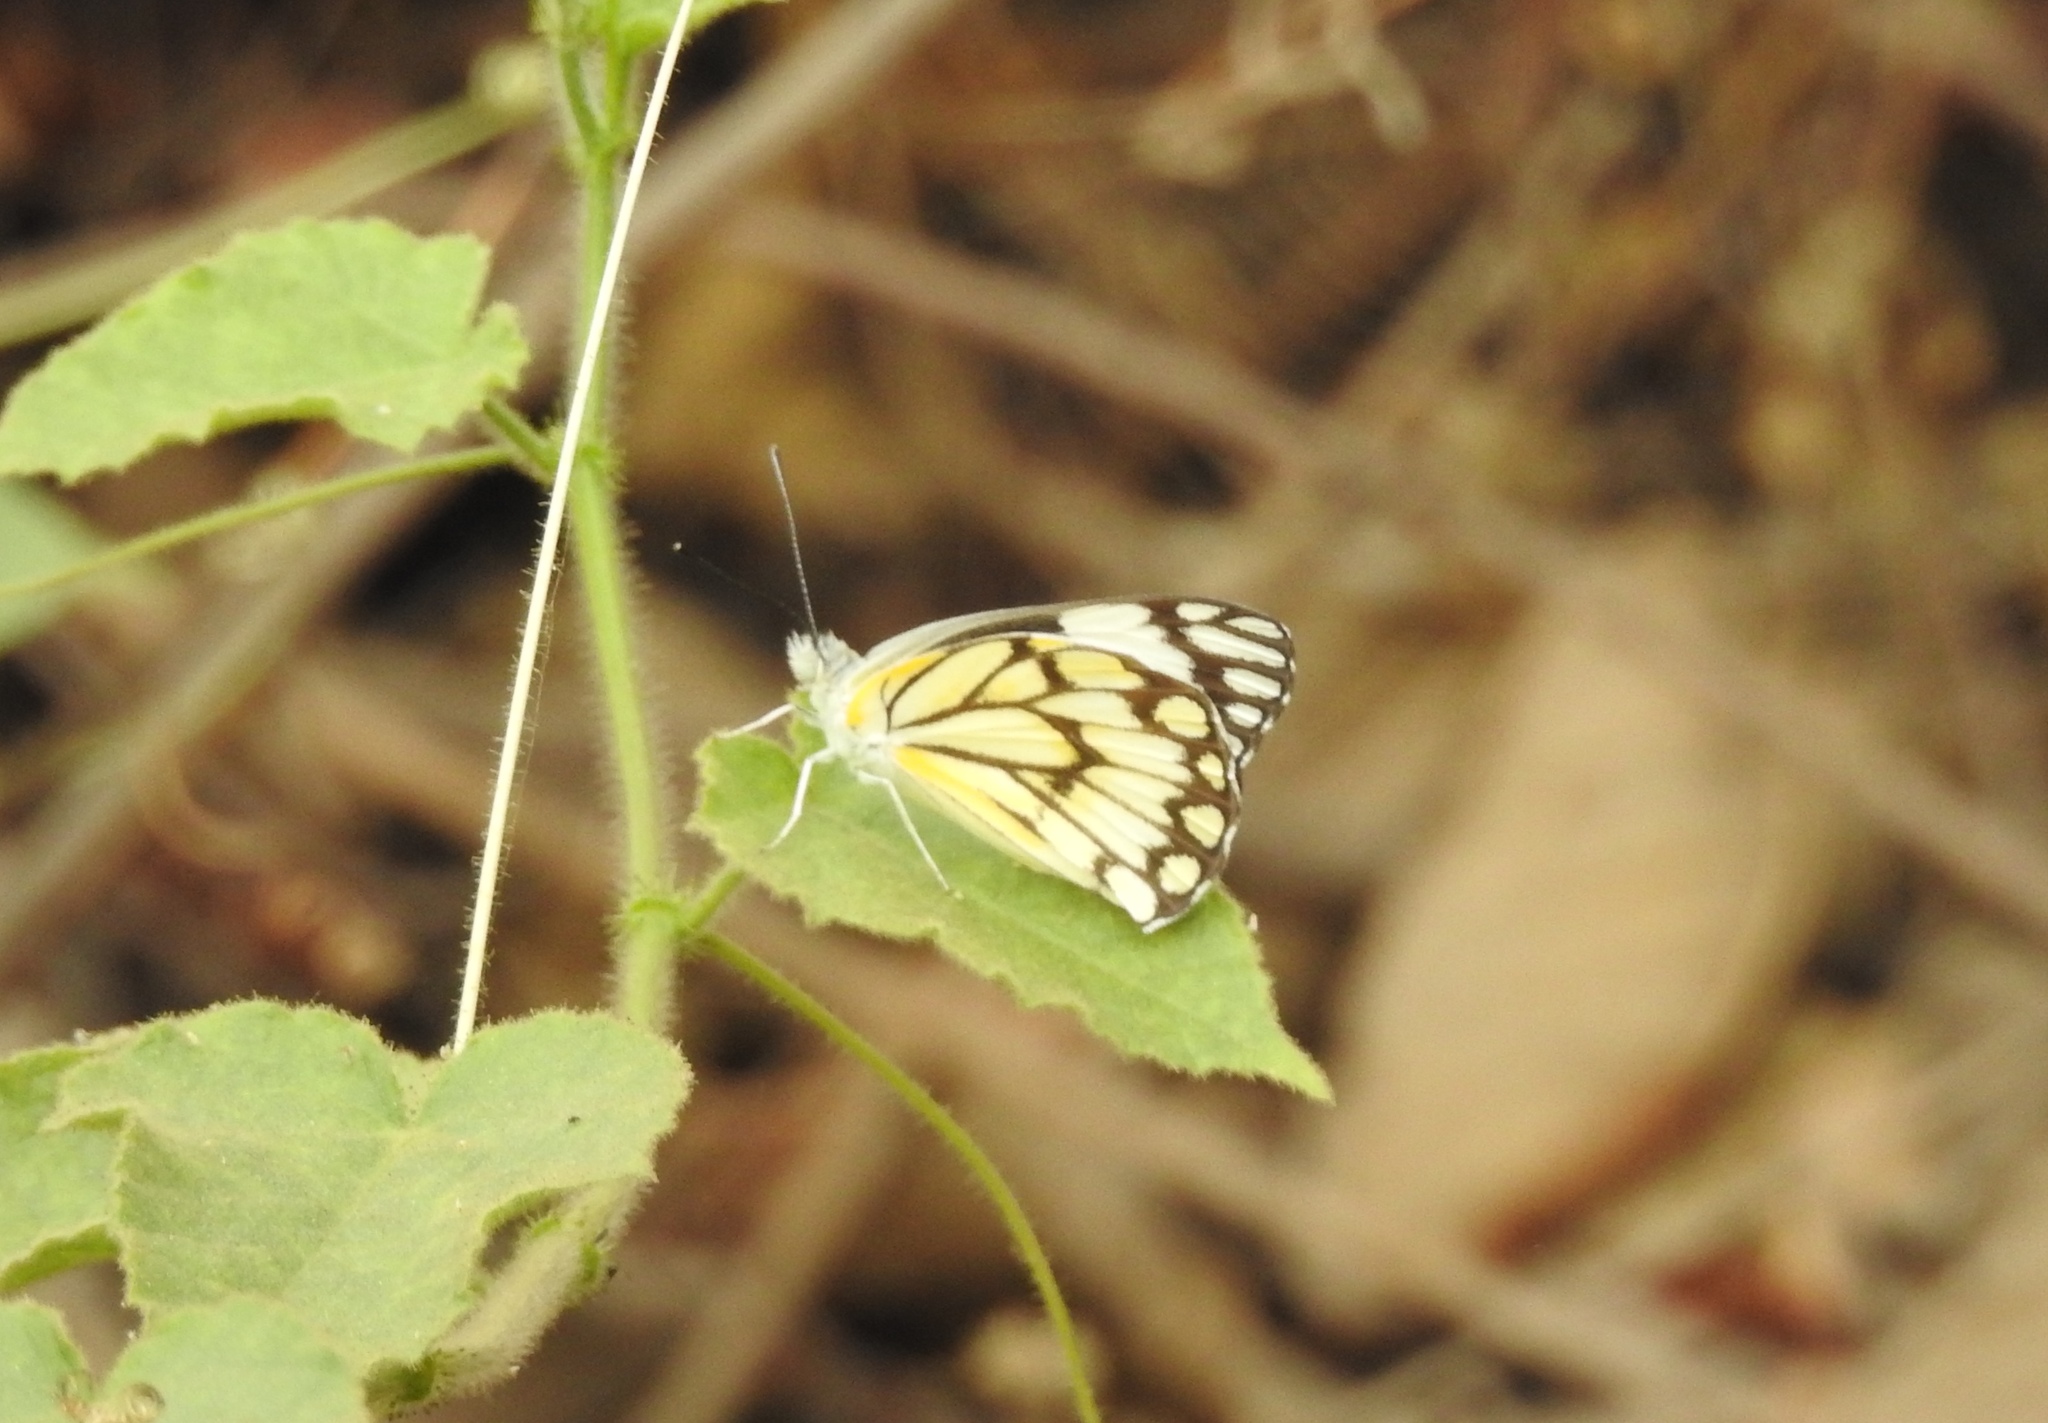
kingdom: Animalia
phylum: Arthropoda
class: Insecta
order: Lepidoptera
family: Pieridae
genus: Belenois
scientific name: Belenois aurota
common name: Brown-veined white
